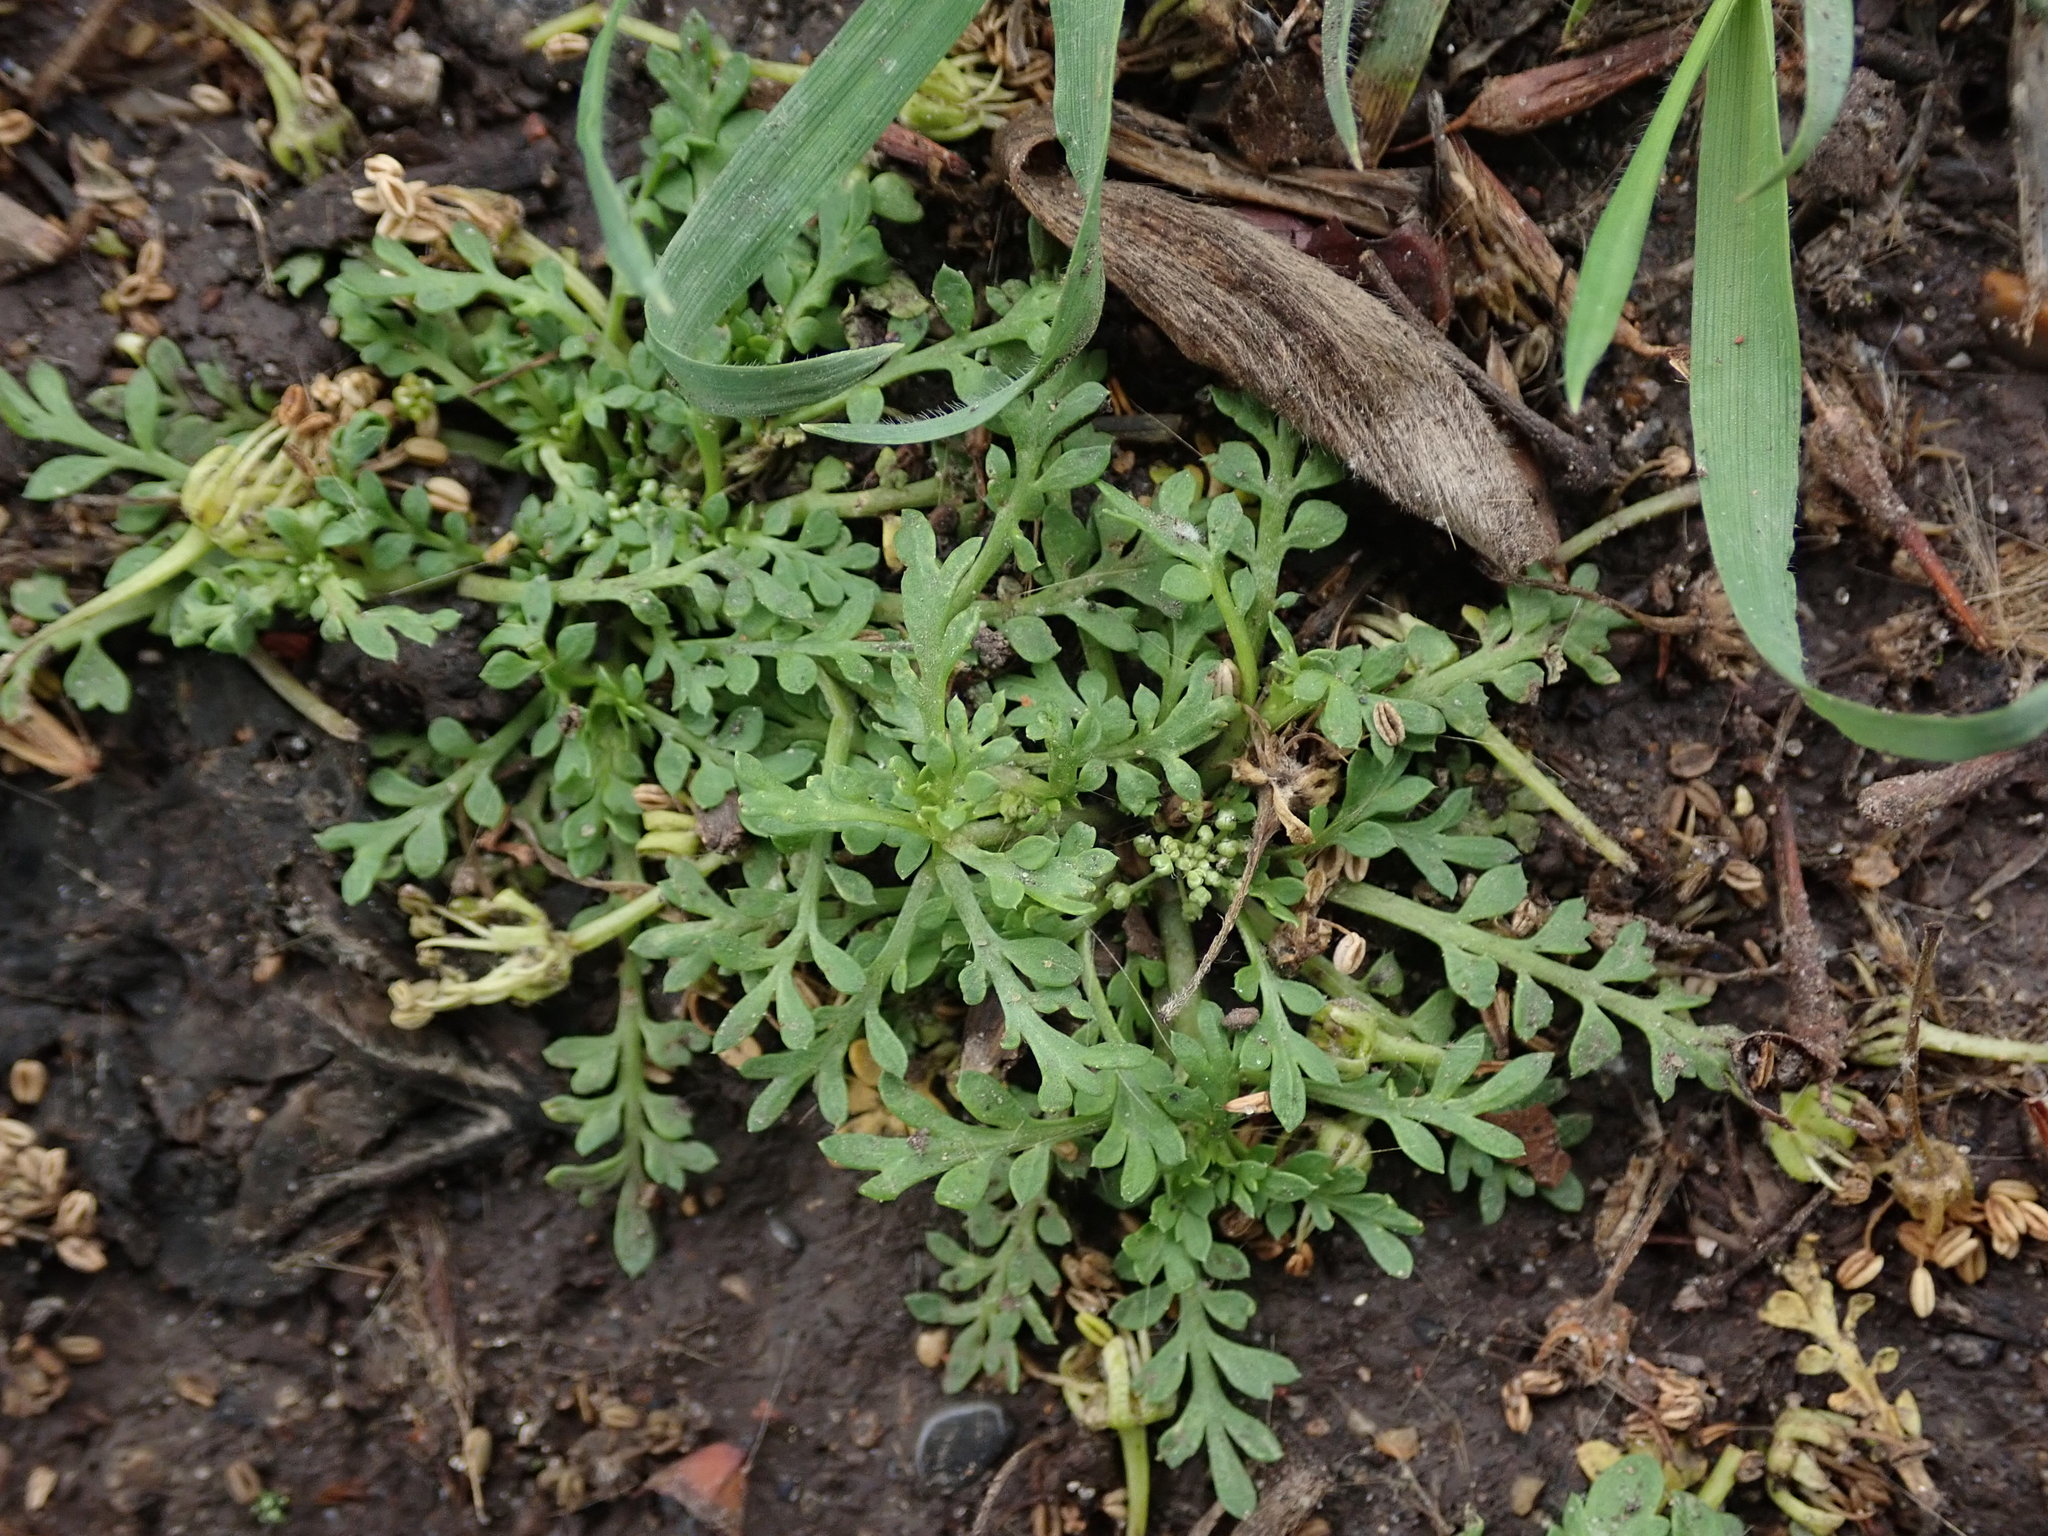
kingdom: Plantae
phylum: Tracheophyta
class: Magnoliopsida
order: Brassicales
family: Brassicaceae
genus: Lepidium
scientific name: Lepidium didymum
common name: Lesser swinecress
